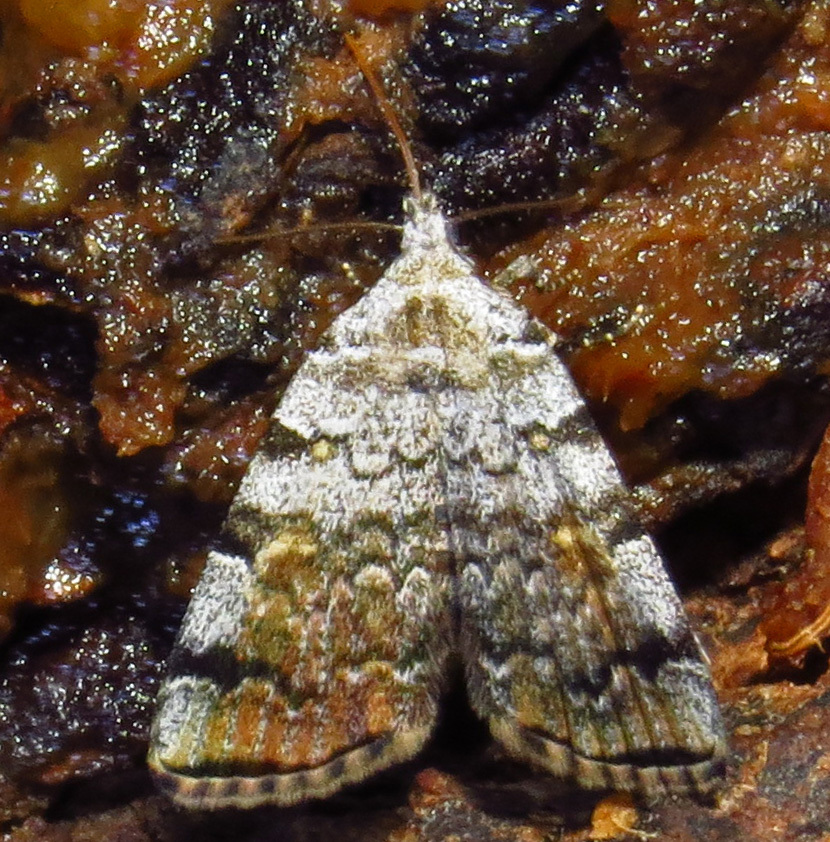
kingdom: Animalia
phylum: Arthropoda
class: Insecta
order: Lepidoptera
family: Erebidae
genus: Idia
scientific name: Idia americalis
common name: American idia moth
